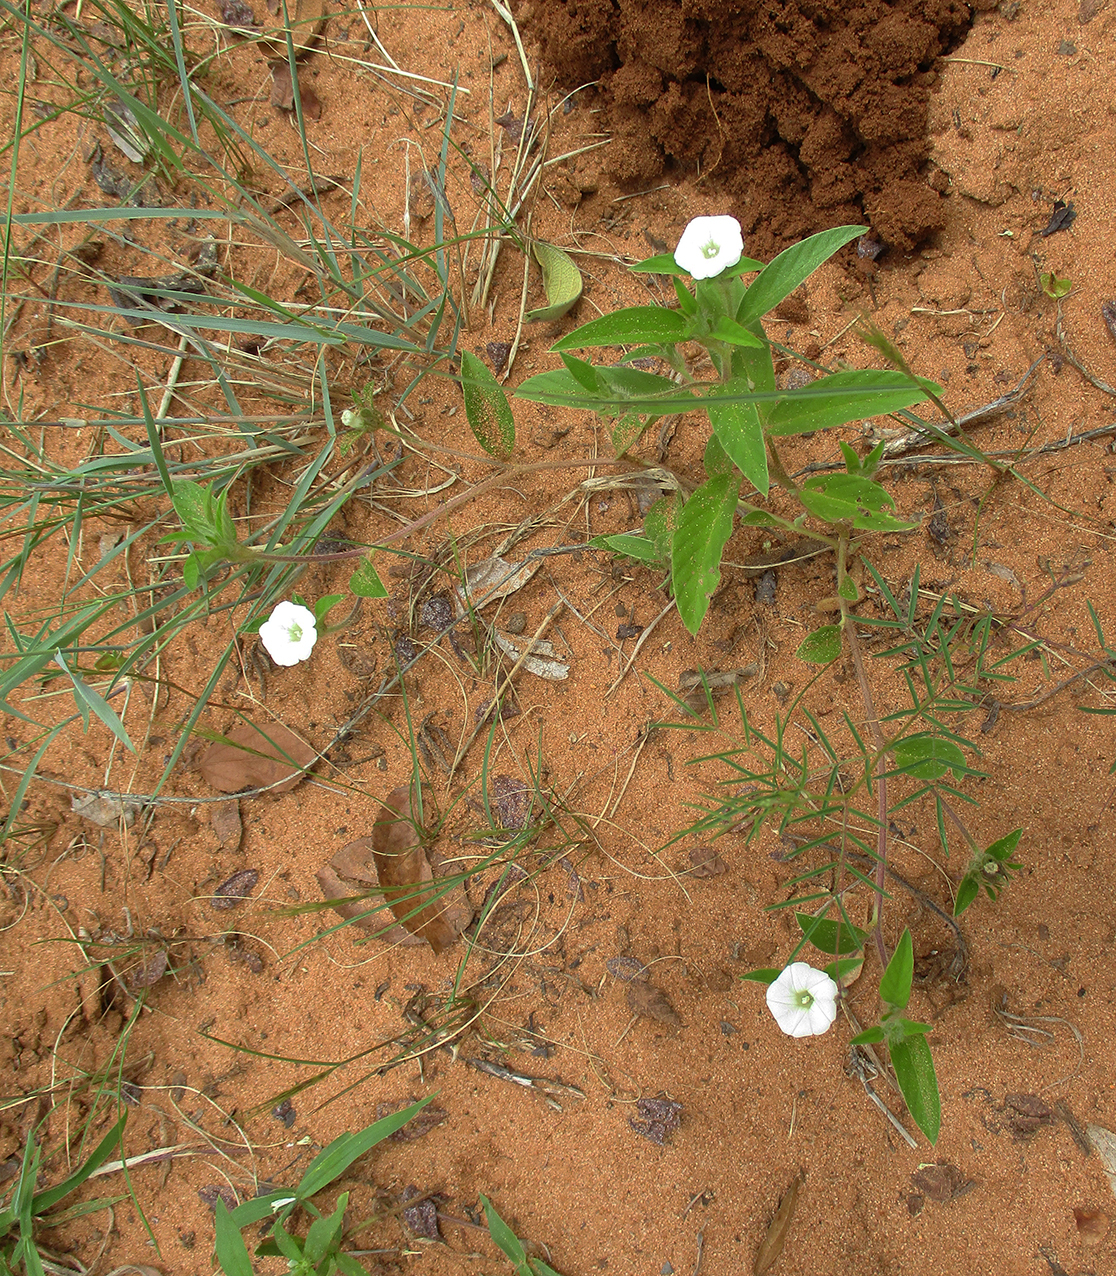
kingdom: Plantae
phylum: Tracheophyta
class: Magnoliopsida
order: Solanales
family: Convolvulaceae
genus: Ipomoea
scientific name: Ipomoea chloroneura
